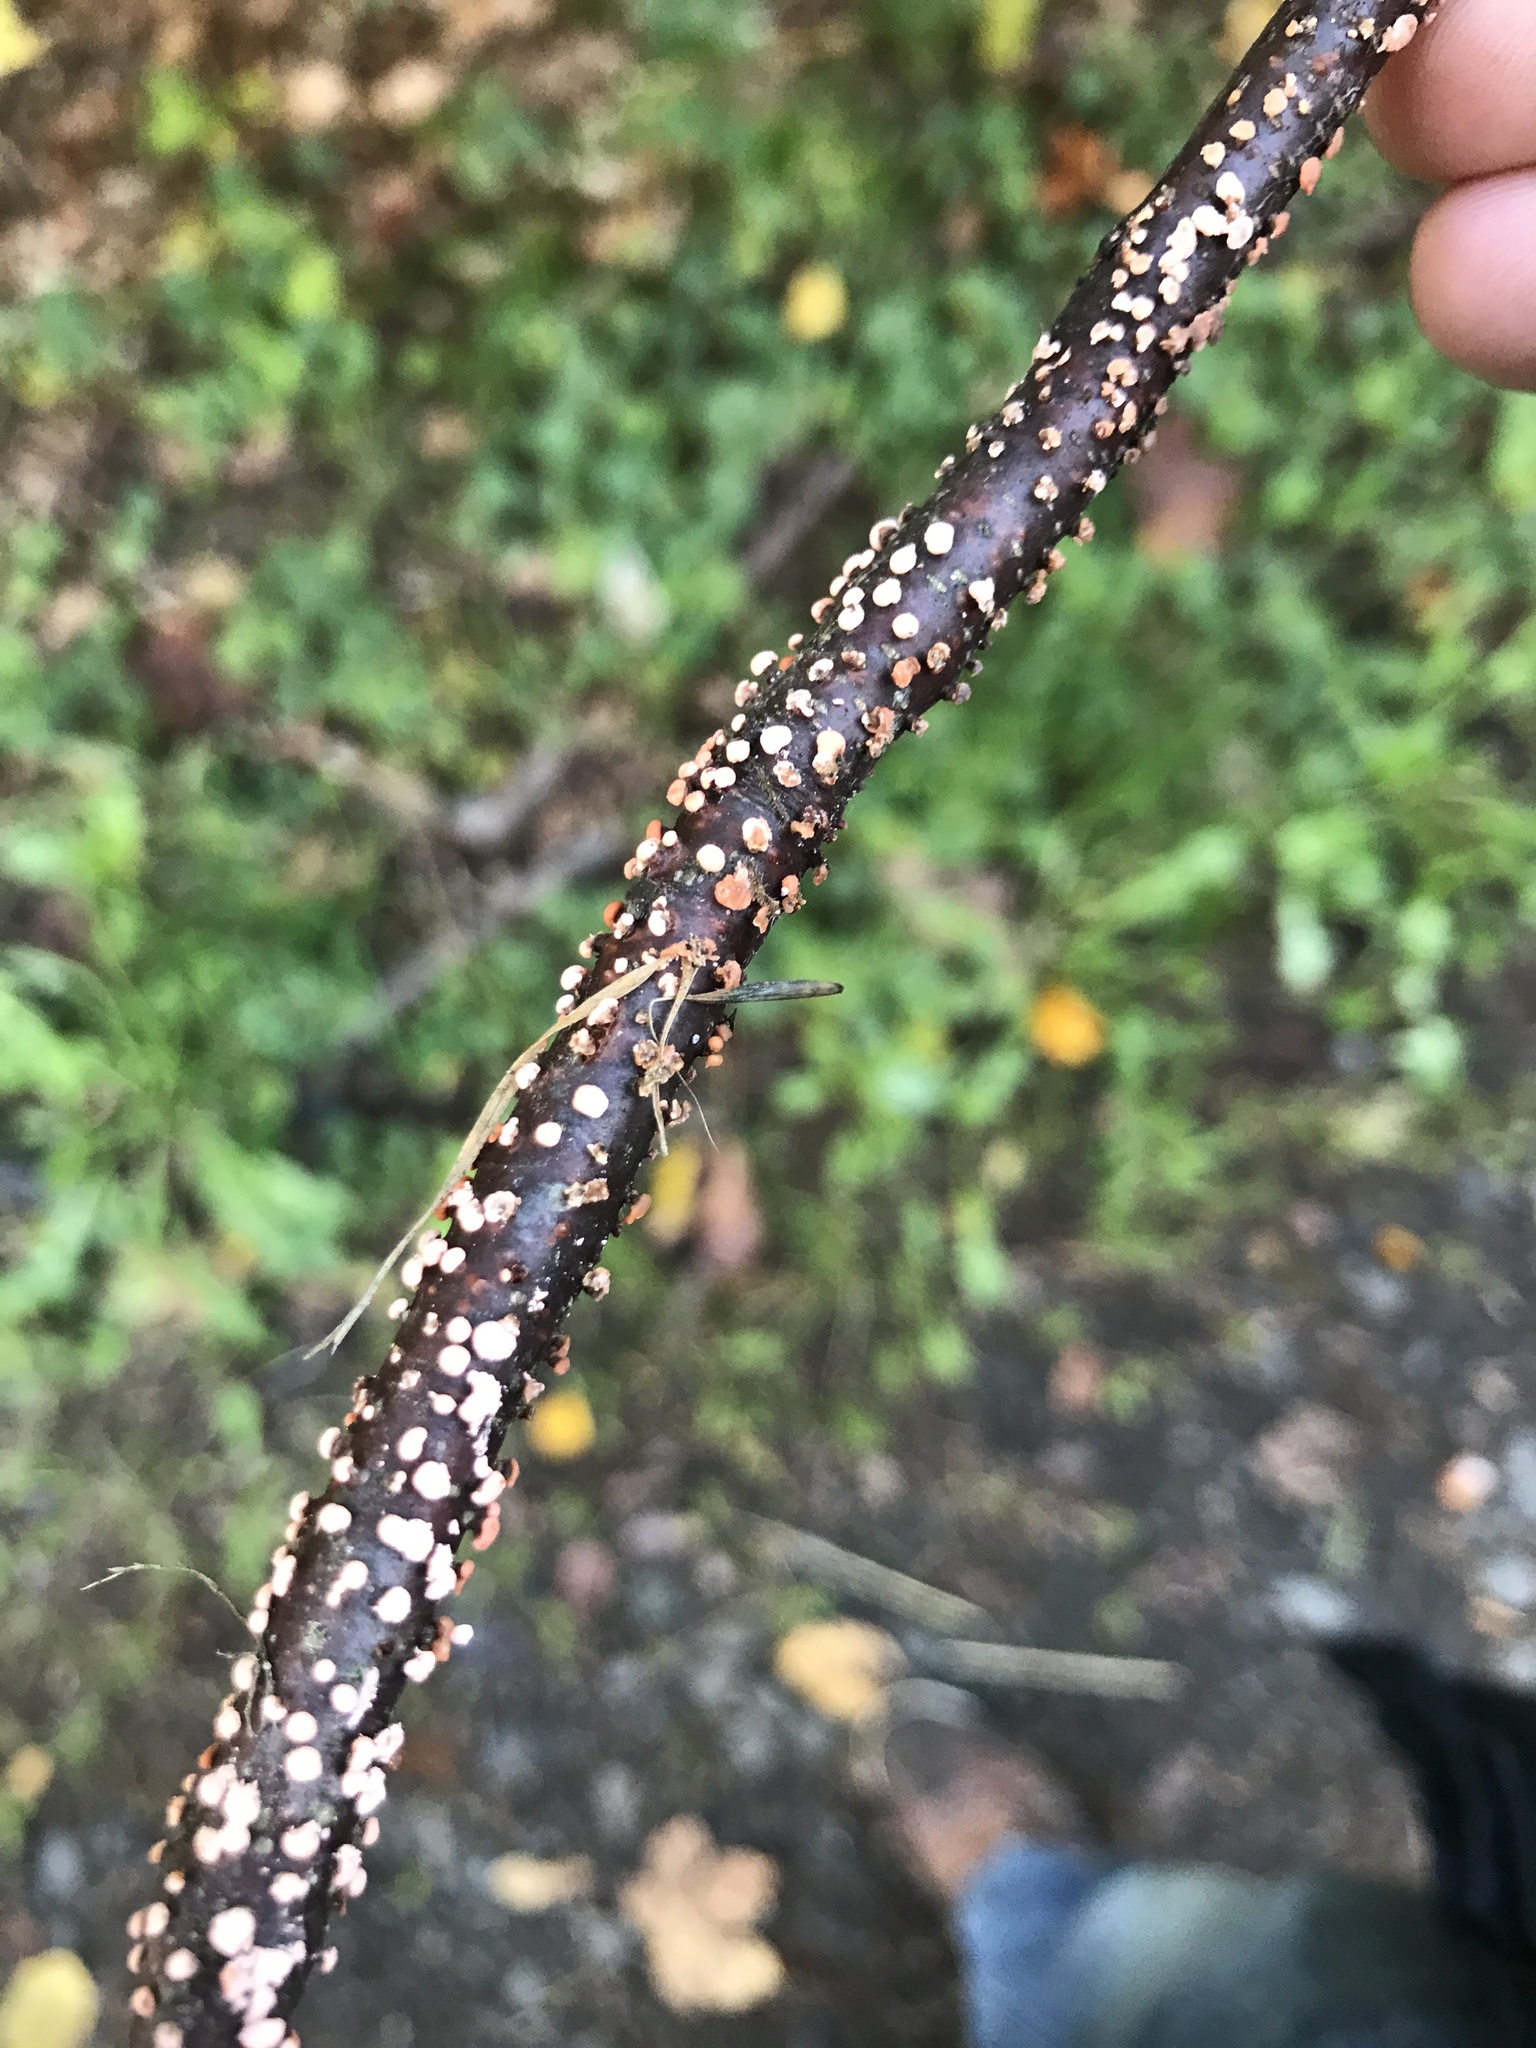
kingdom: Fungi
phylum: Ascomycota
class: Sordariomycetes
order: Hypocreales
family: Nectriaceae
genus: Nectria
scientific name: Nectria cinnabarina
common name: Coral spot
